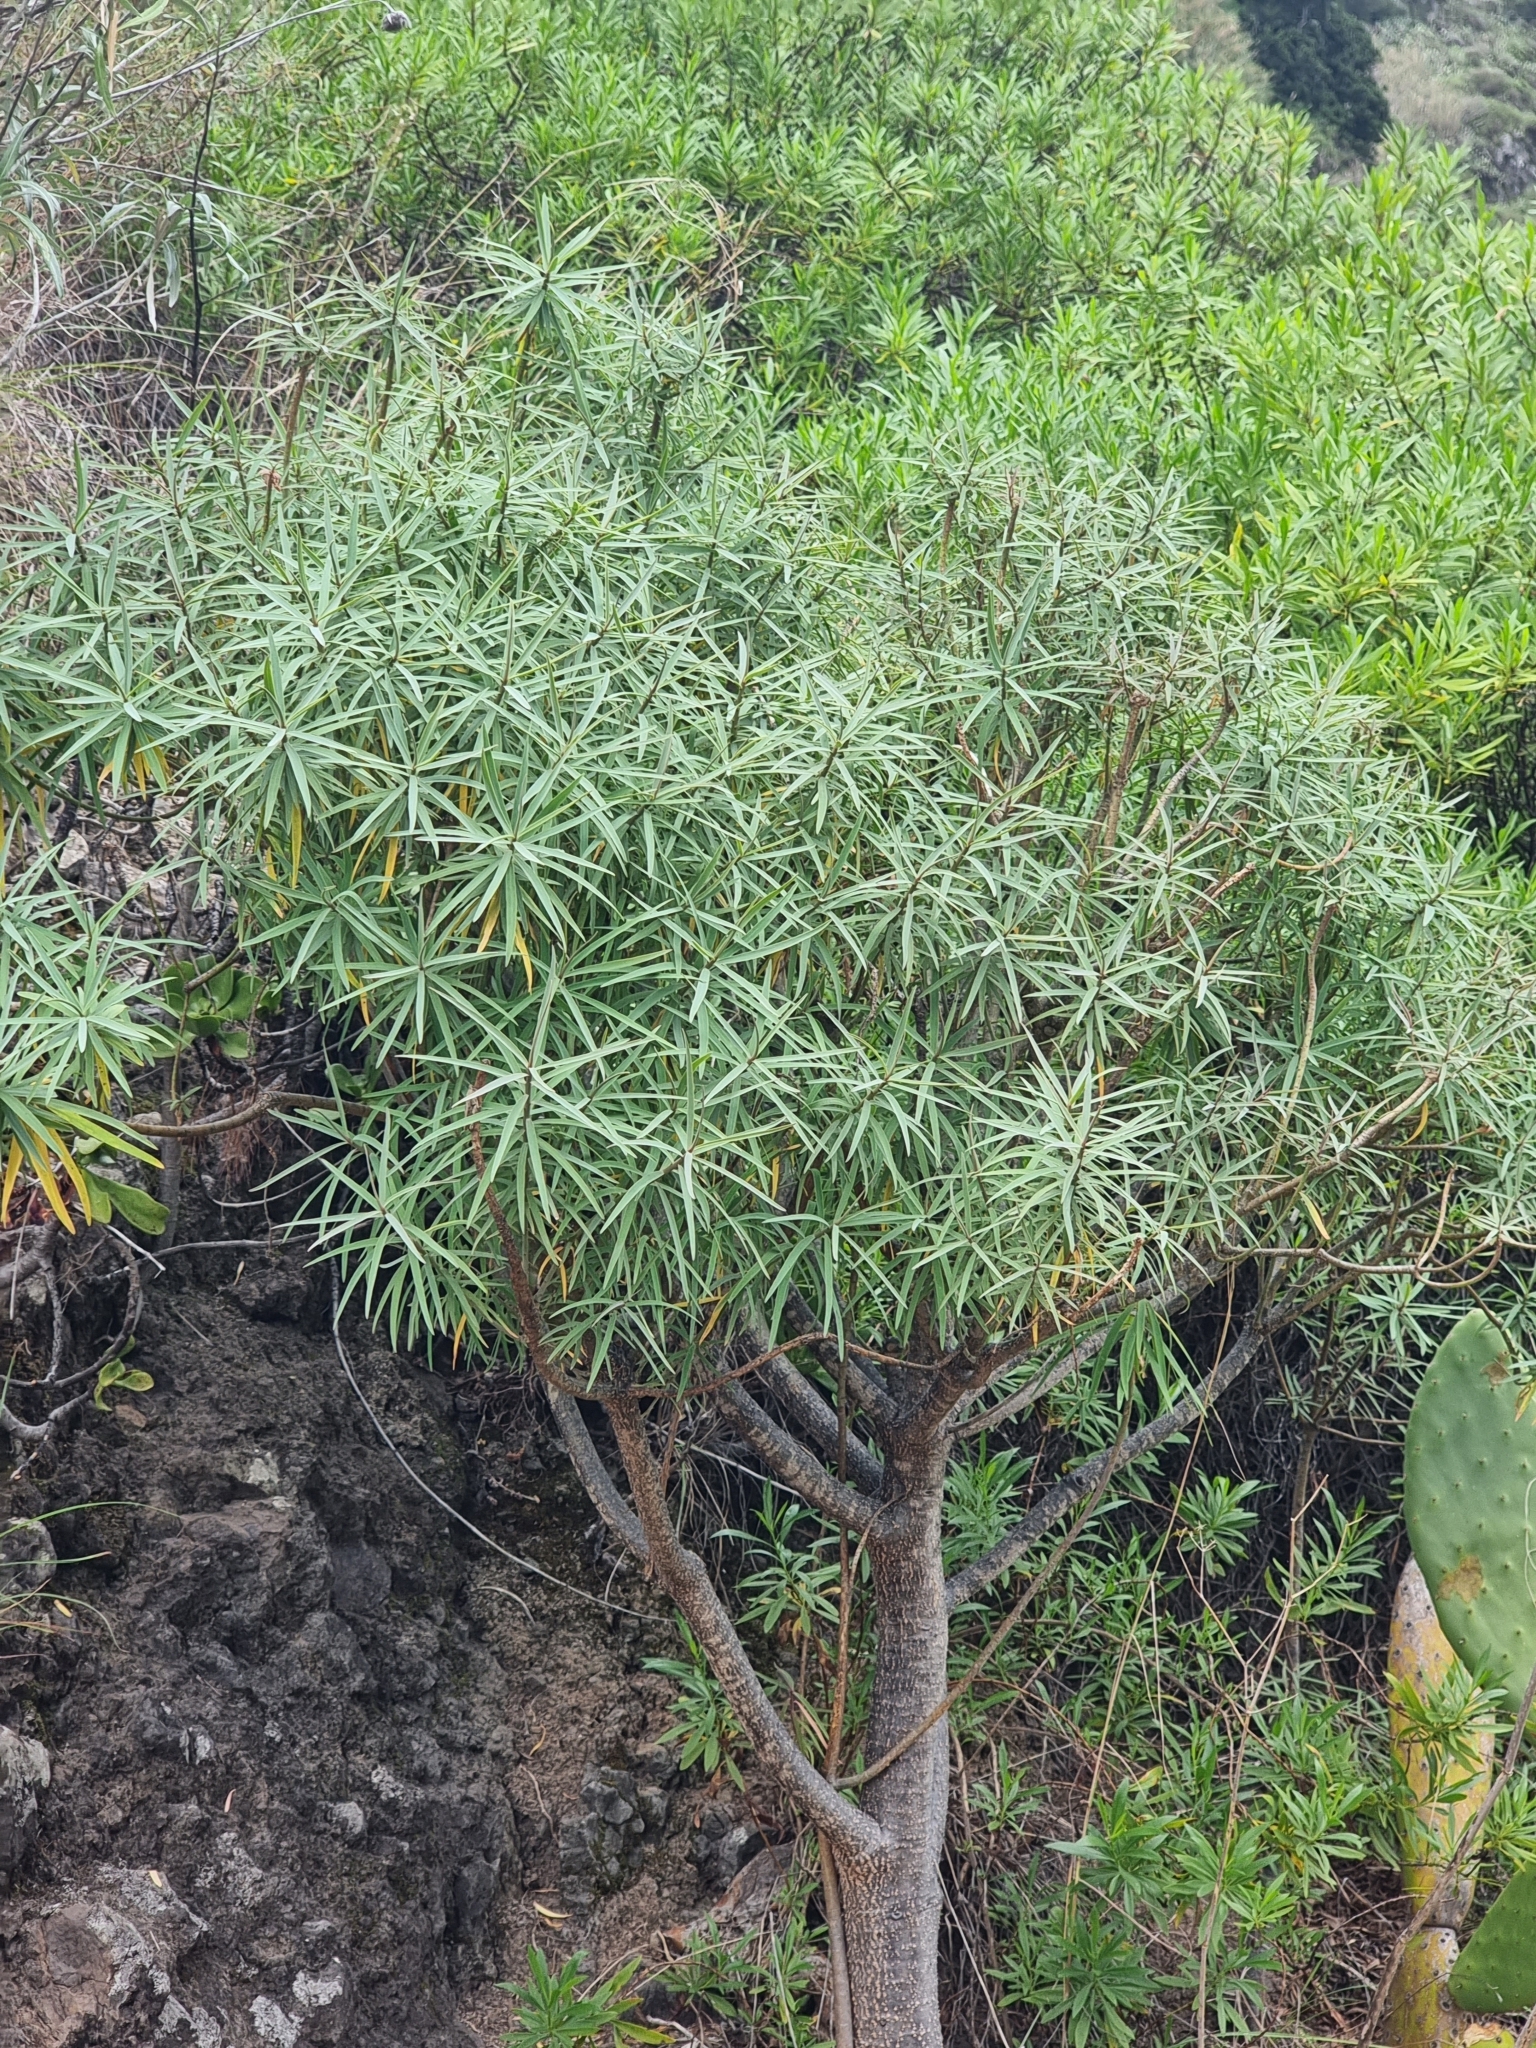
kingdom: Plantae
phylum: Tracheophyta
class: Magnoliopsida
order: Malpighiales
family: Euphorbiaceae
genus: Euphorbia
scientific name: Euphorbia piscatoria
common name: Fish-stunning spurge
